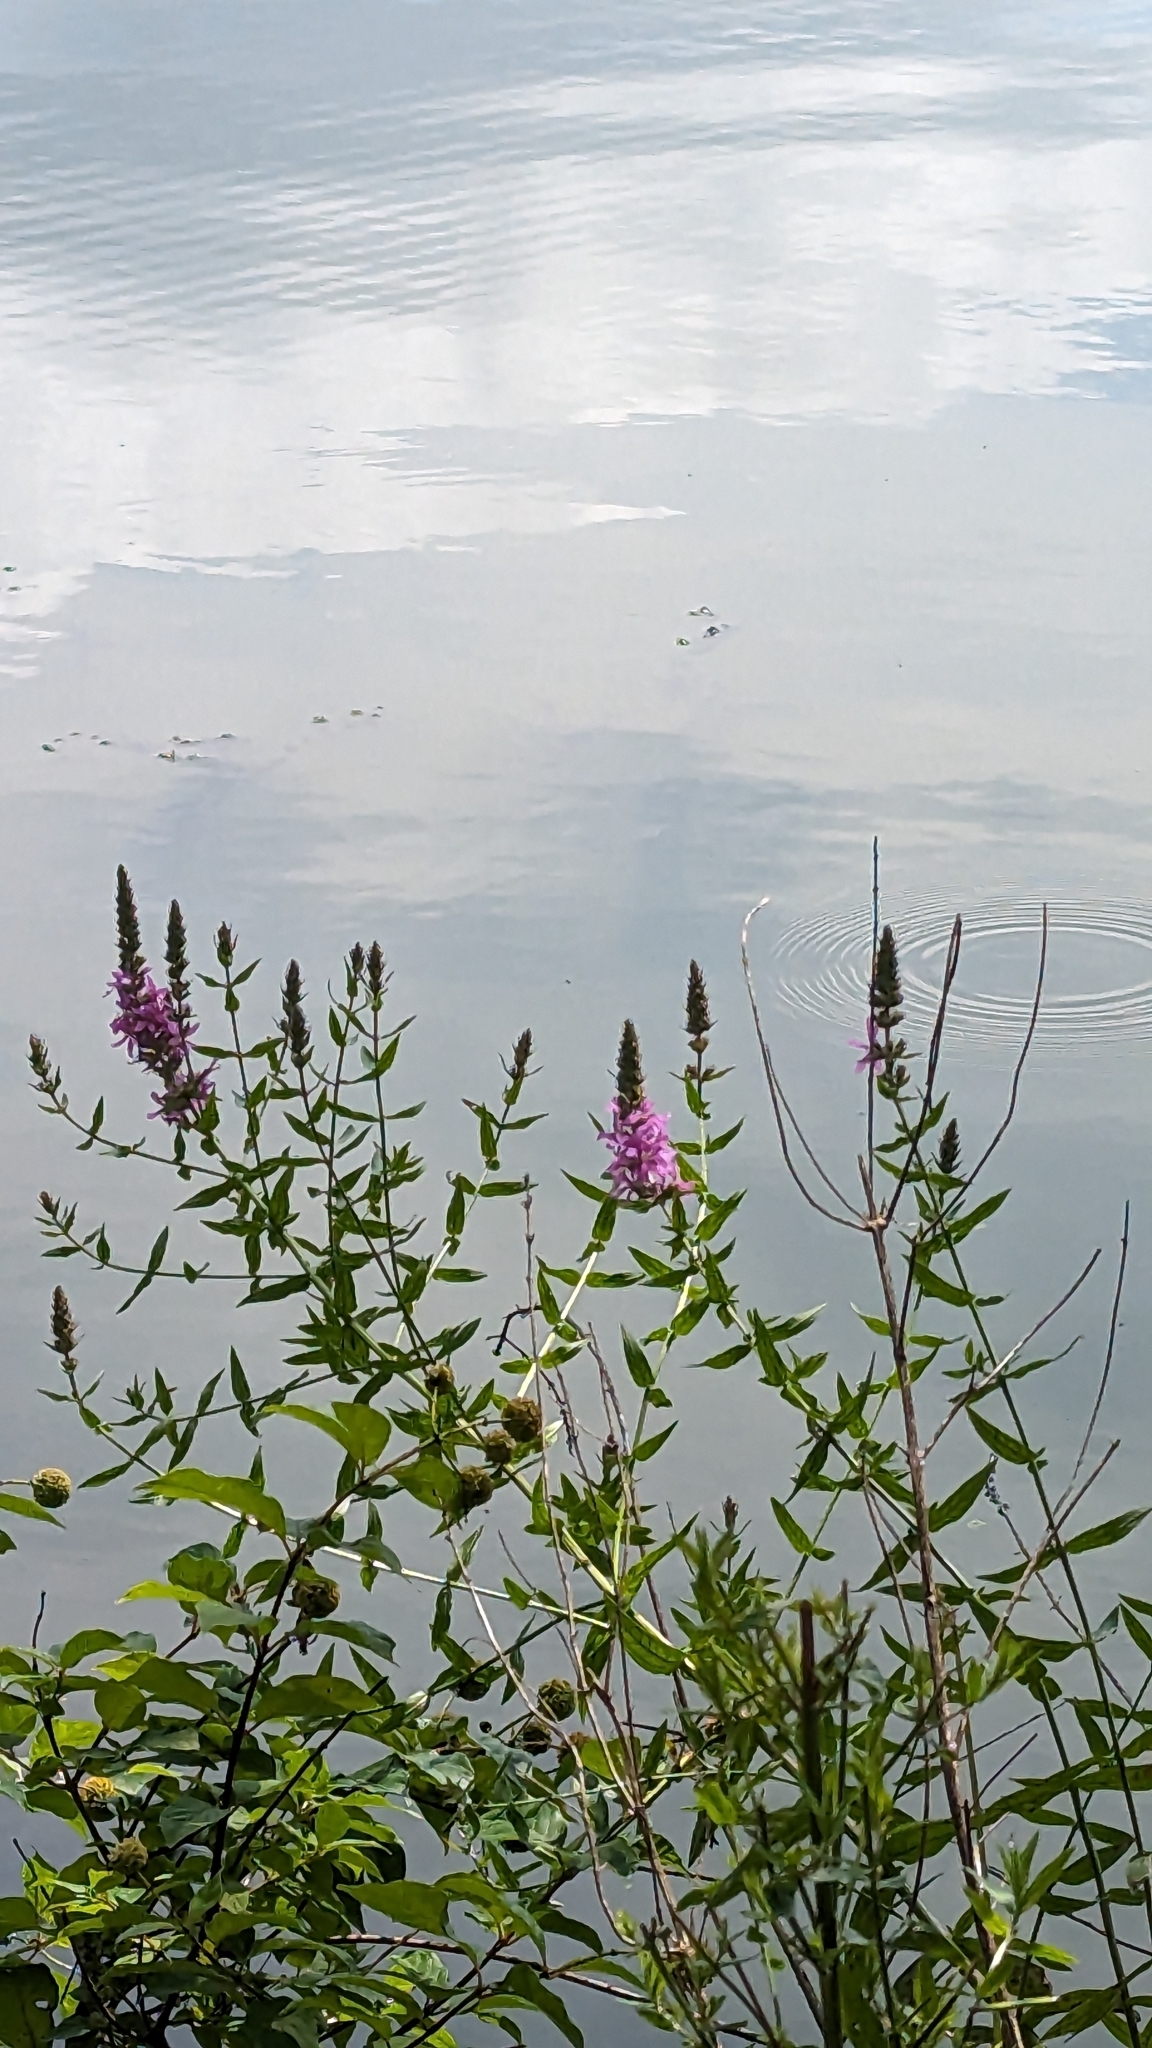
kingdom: Plantae
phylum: Tracheophyta
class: Magnoliopsida
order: Myrtales
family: Lythraceae
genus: Lythrum
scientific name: Lythrum salicaria
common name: Purple loosestrife
